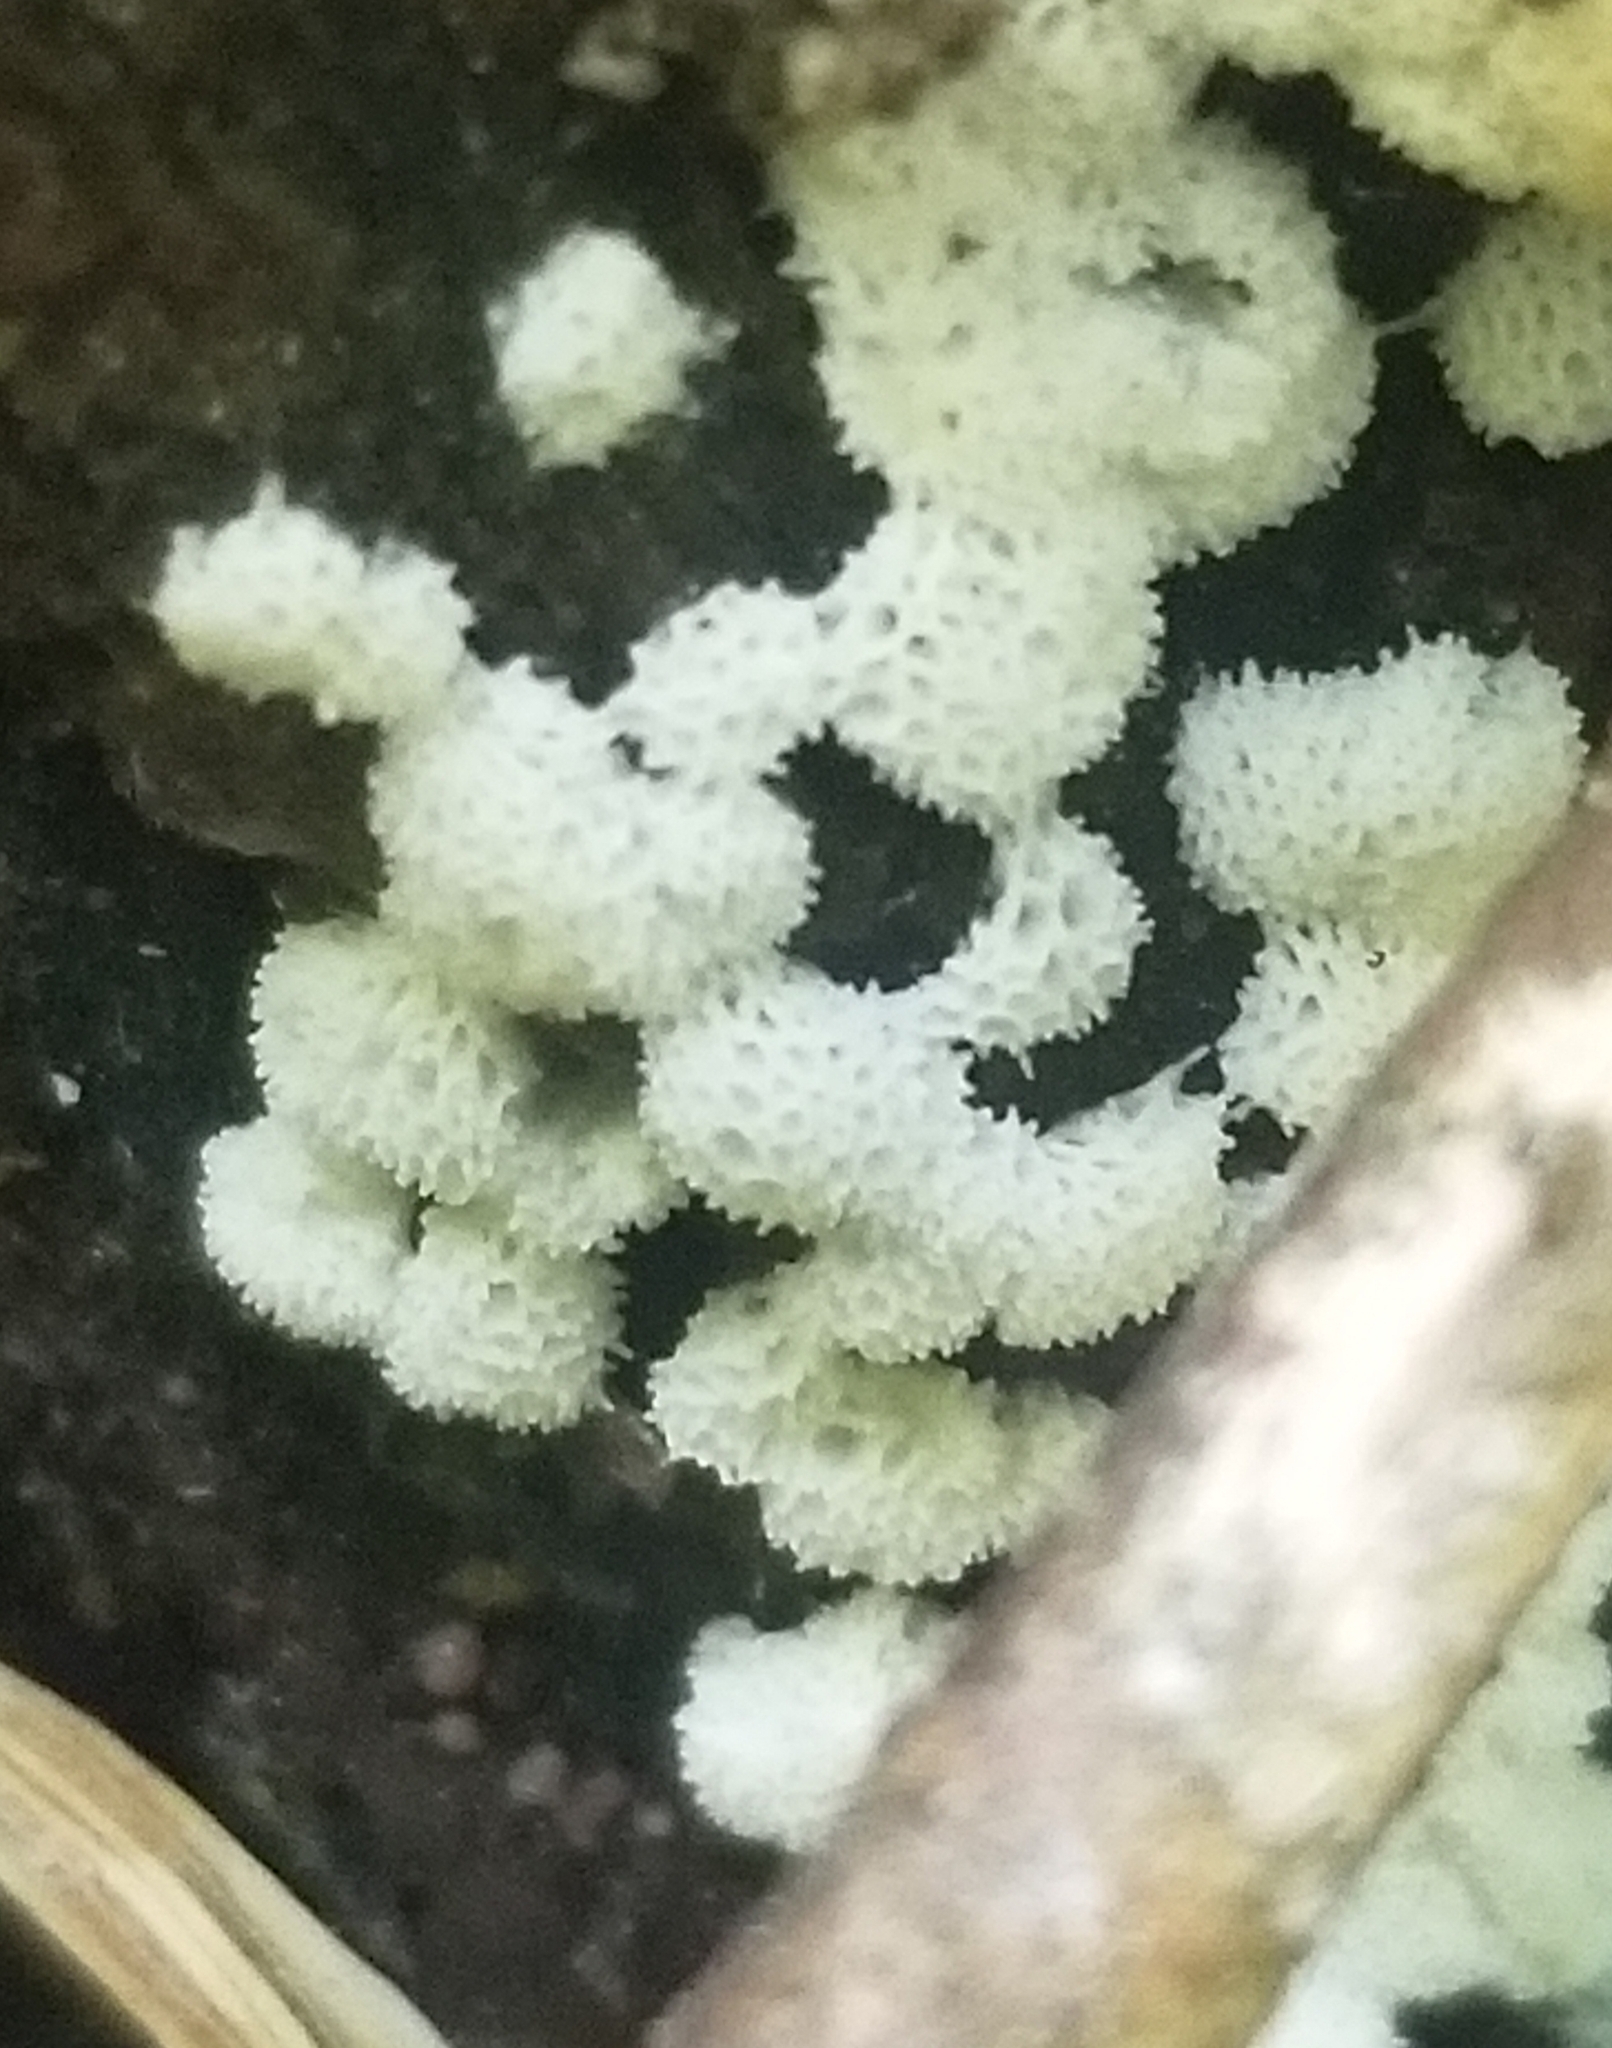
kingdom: Protozoa
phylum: Mycetozoa
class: Protosteliomycetes
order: Ceratiomyxales
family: Ceratiomyxaceae
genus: Ceratiomyxa
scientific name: Ceratiomyxa fruticulosa
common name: Honeycomb coral slime mold
